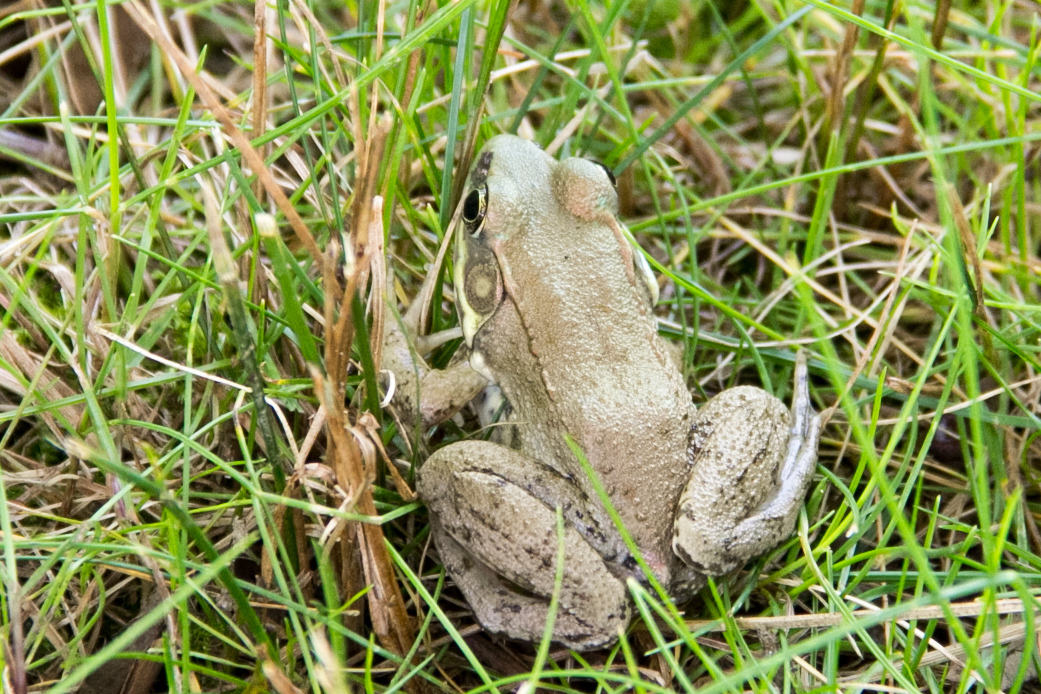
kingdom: Animalia
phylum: Chordata
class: Amphibia
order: Anura
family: Ranidae
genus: Lithobates
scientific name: Lithobates clamitans
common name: Green frog
